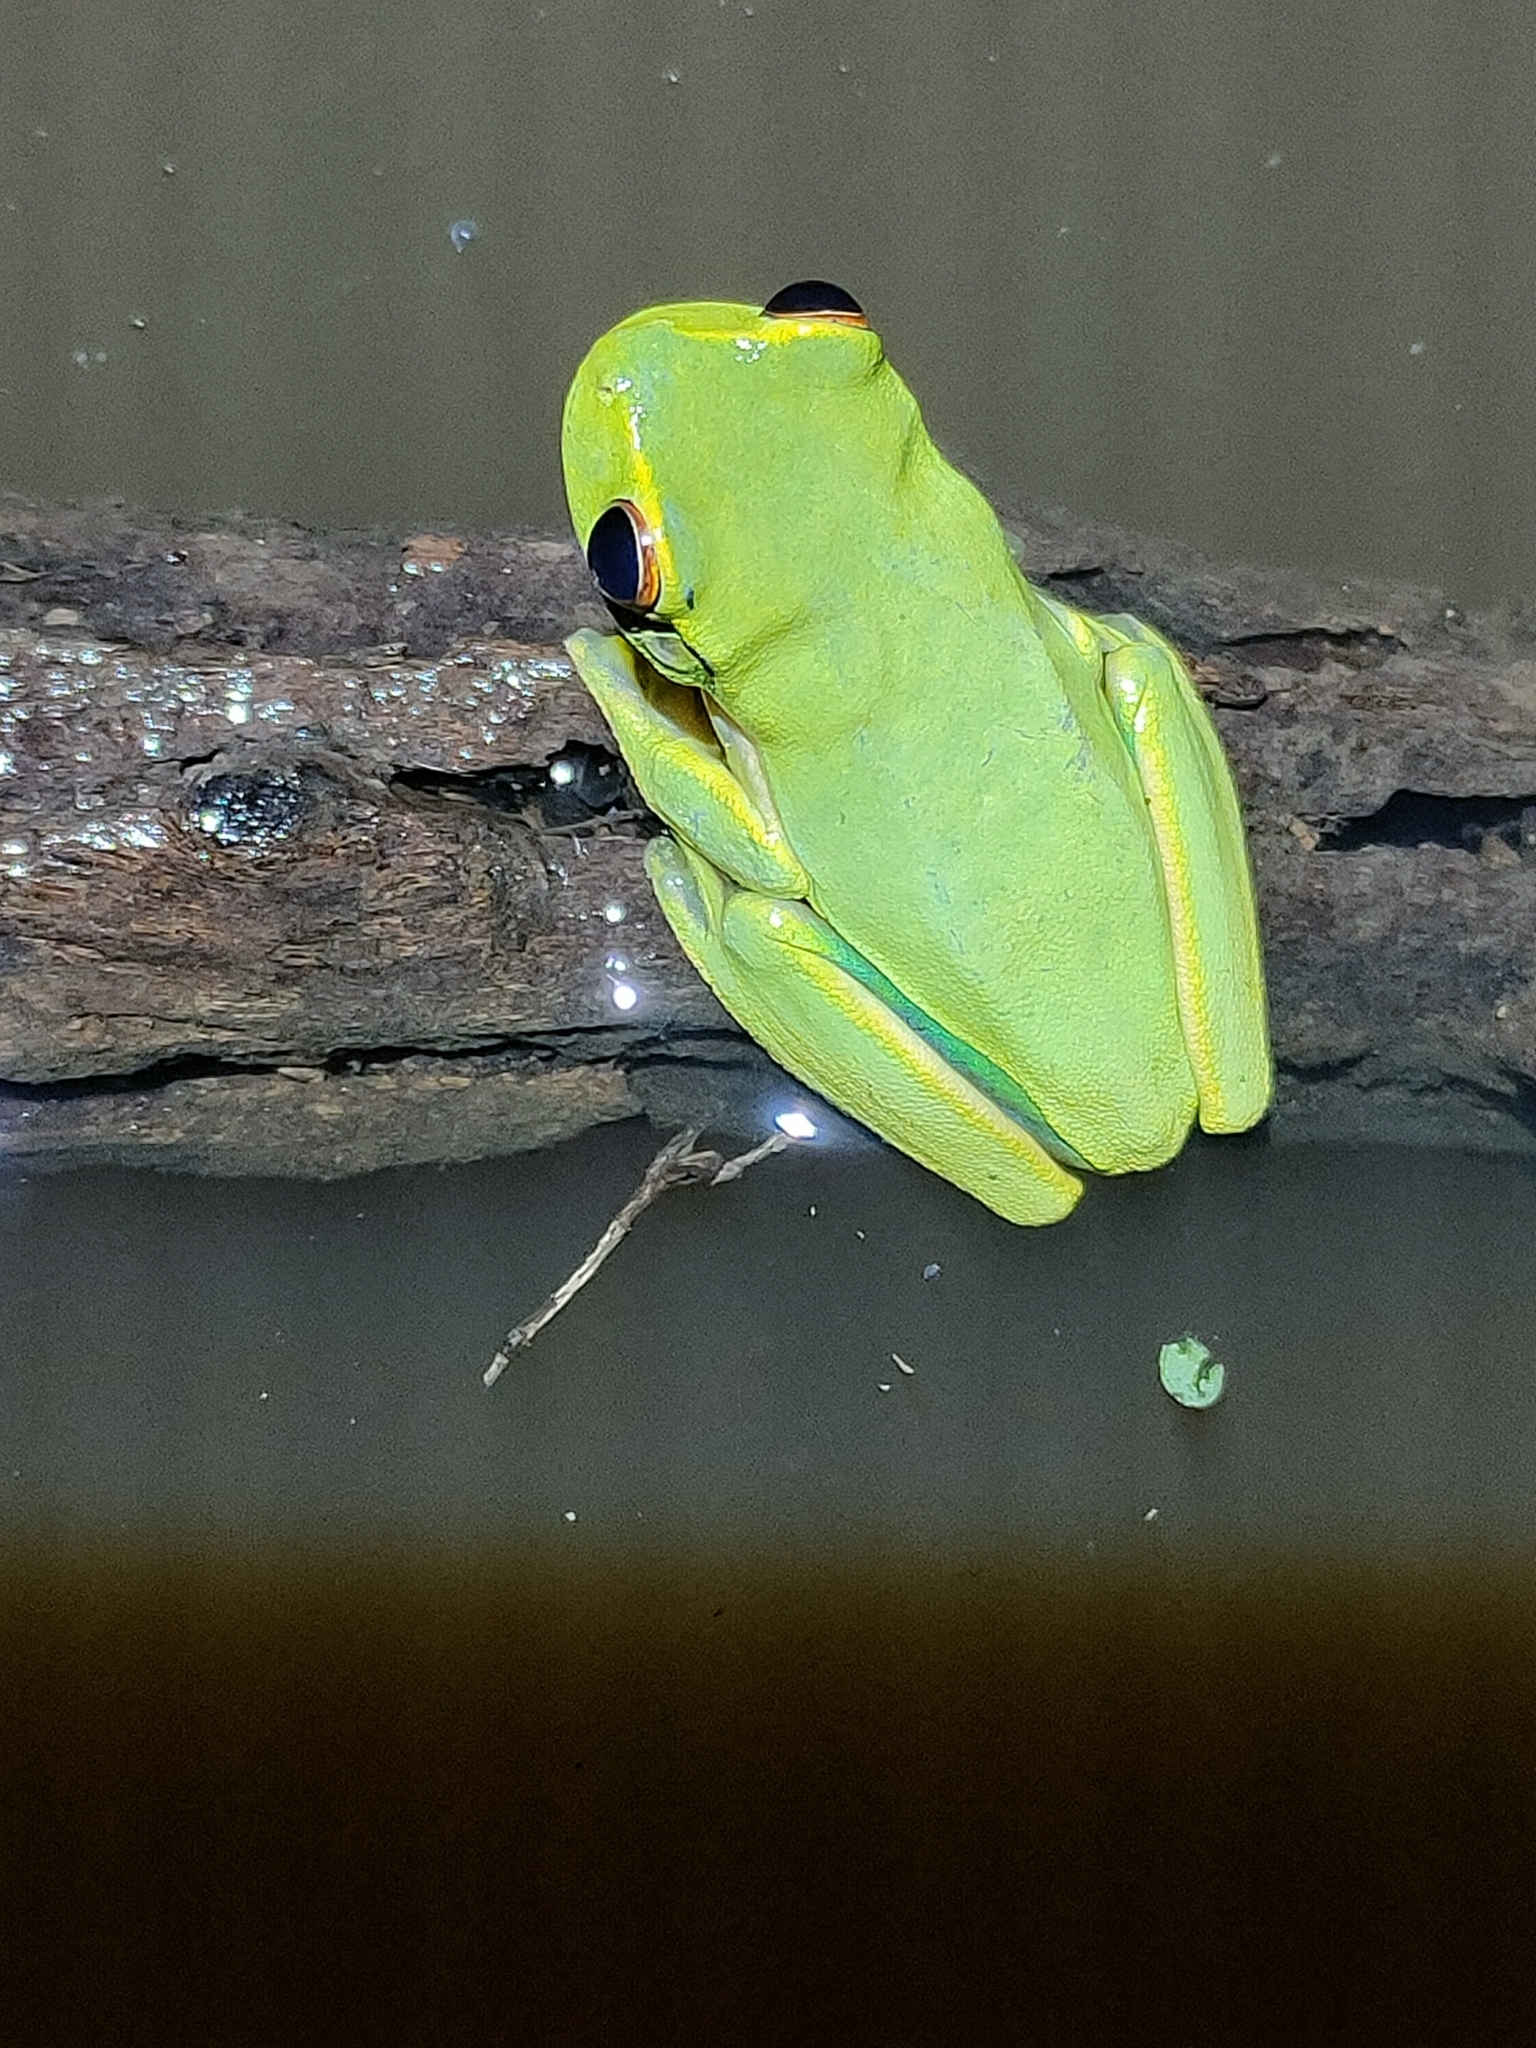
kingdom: Animalia
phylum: Chordata
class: Amphibia
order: Anura
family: Pelodryadidae
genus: Ranoidea
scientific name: Ranoidea gracilenta
